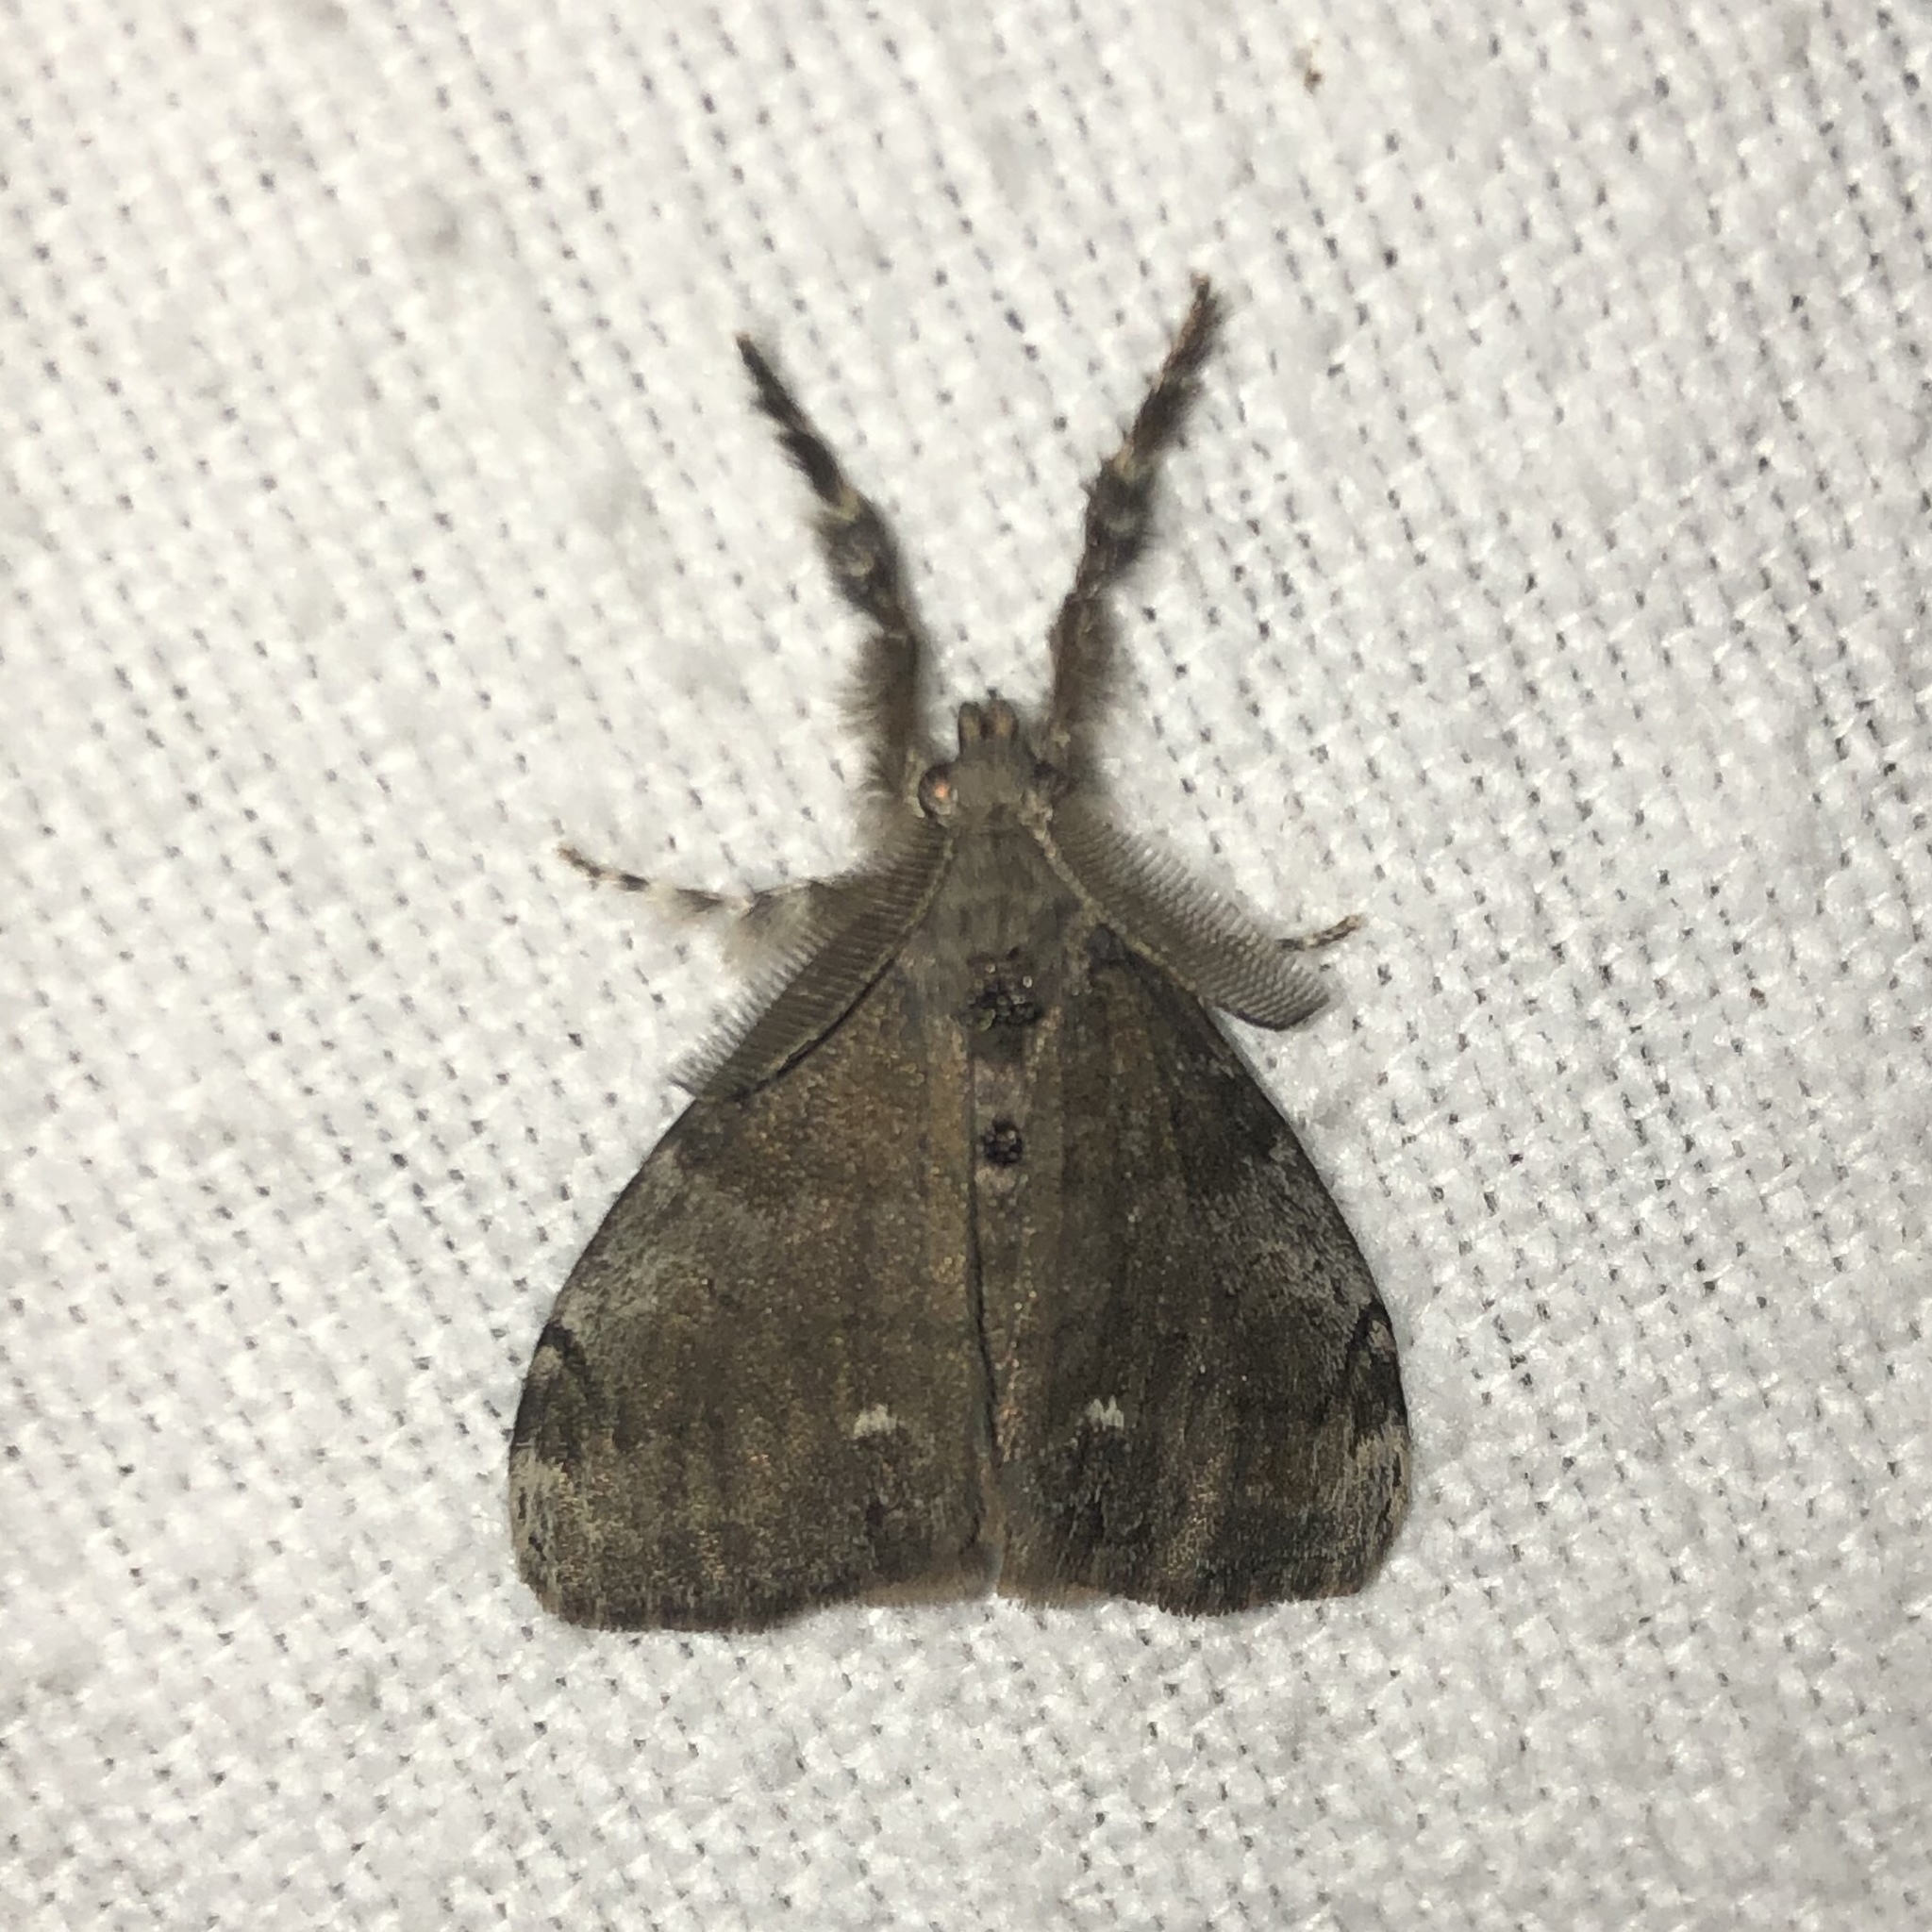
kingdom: Animalia
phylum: Arthropoda
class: Insecta
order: Lepidoptera
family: Erebidae
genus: Orgyia
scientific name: Orgyia leucostigma
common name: White-marked tussock moth
